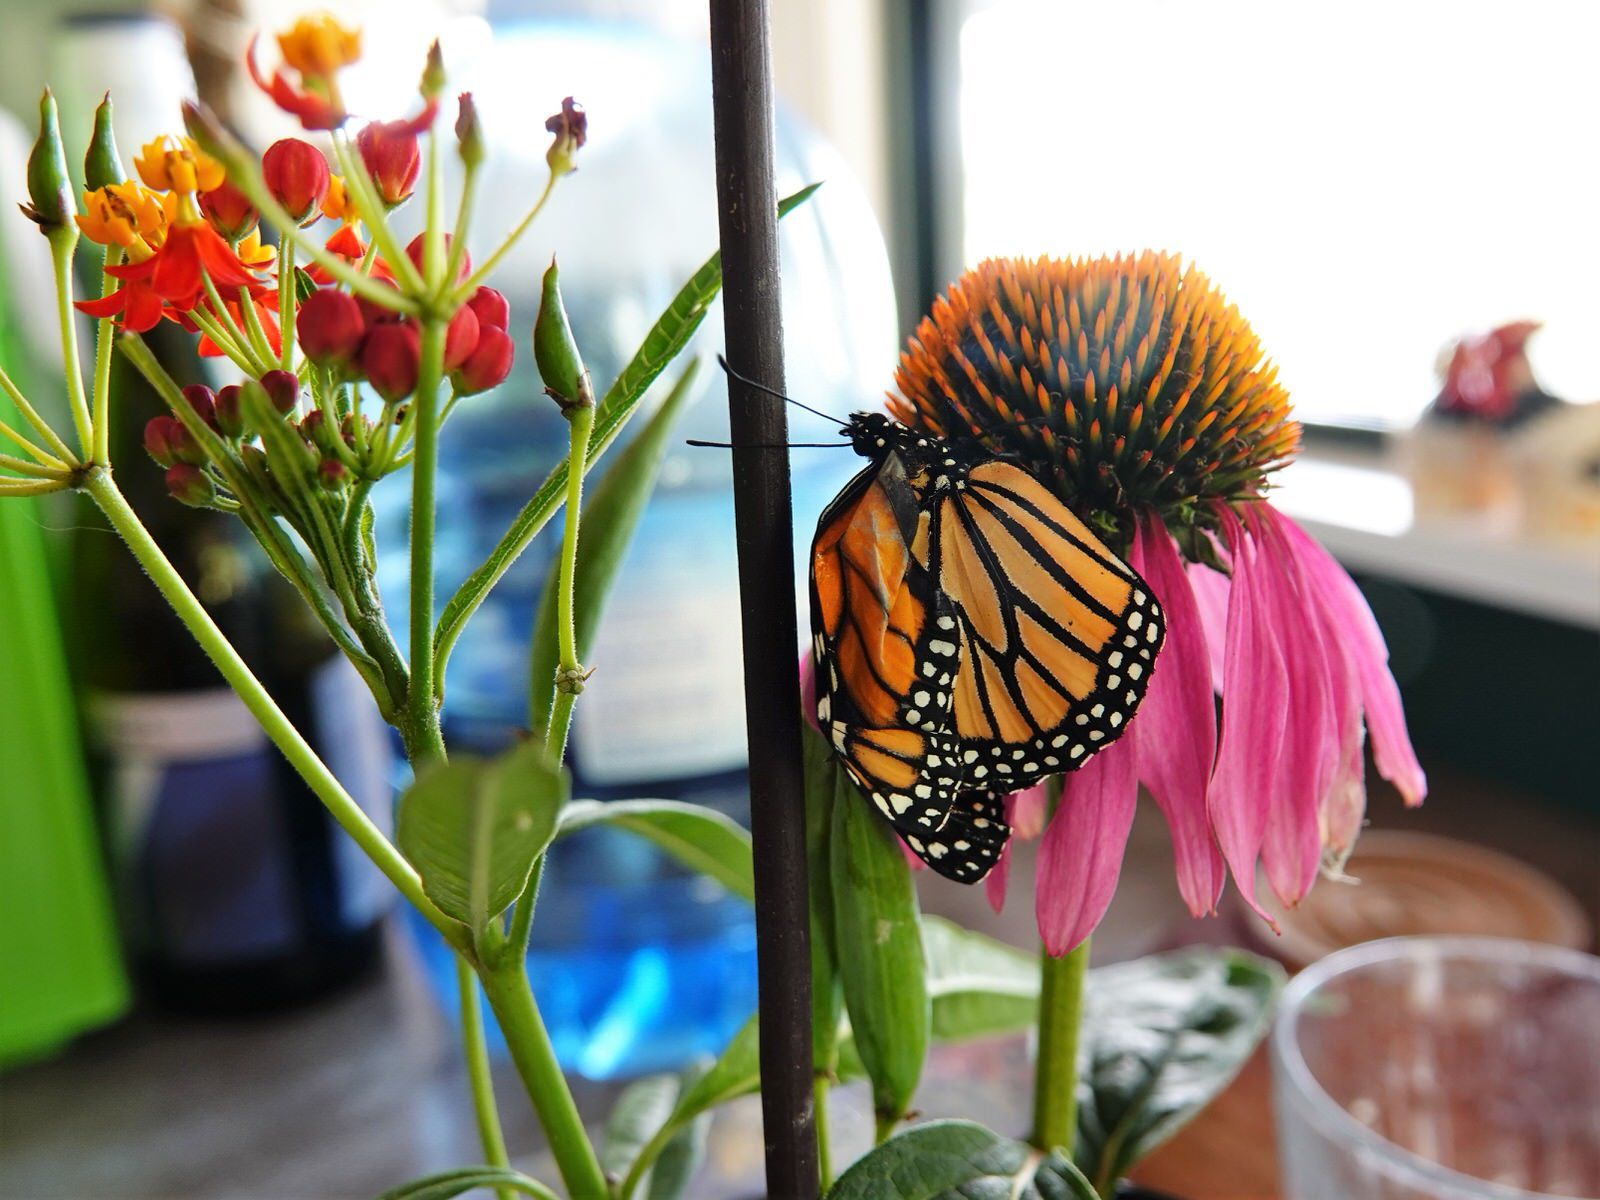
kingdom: Animalia
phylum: Arthropoda
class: Insecta
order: Lepidoptera
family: Nymphalidae
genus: Danaus
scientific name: Danaus plexippus
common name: Monarch
